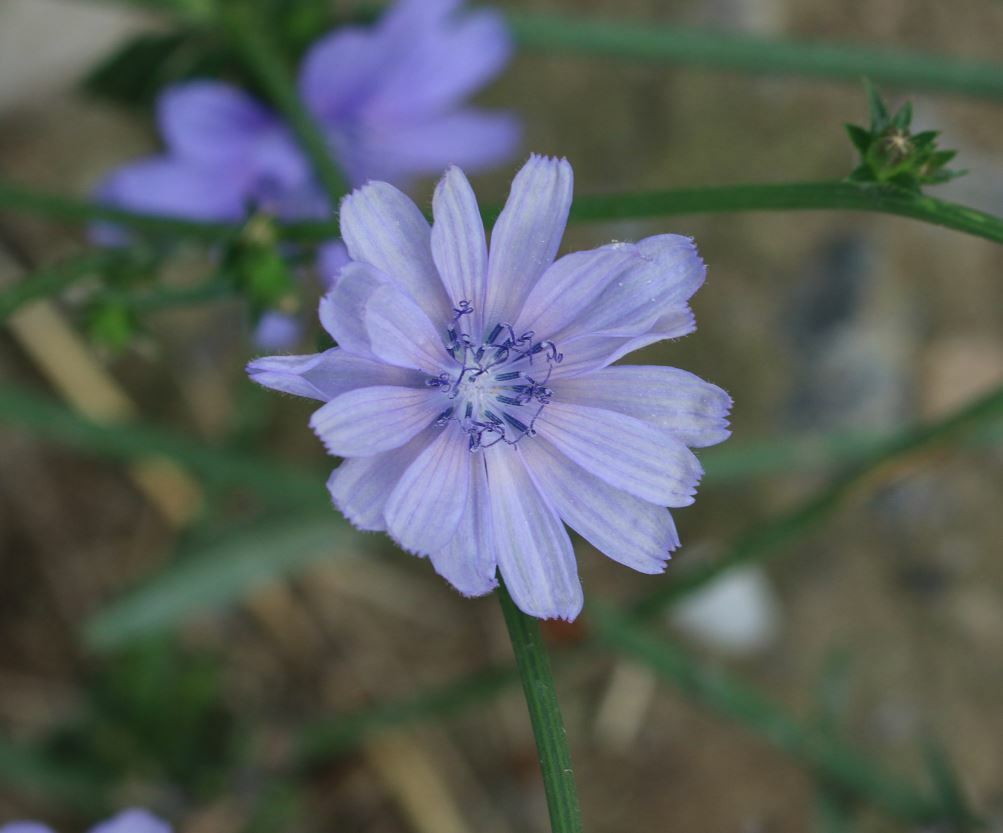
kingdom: Plantae
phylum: Tracheophyta
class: Magnoliopsida
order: Asterales
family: Asteraceae
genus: Cichorium
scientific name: Cichorium intybus
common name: Chicory
